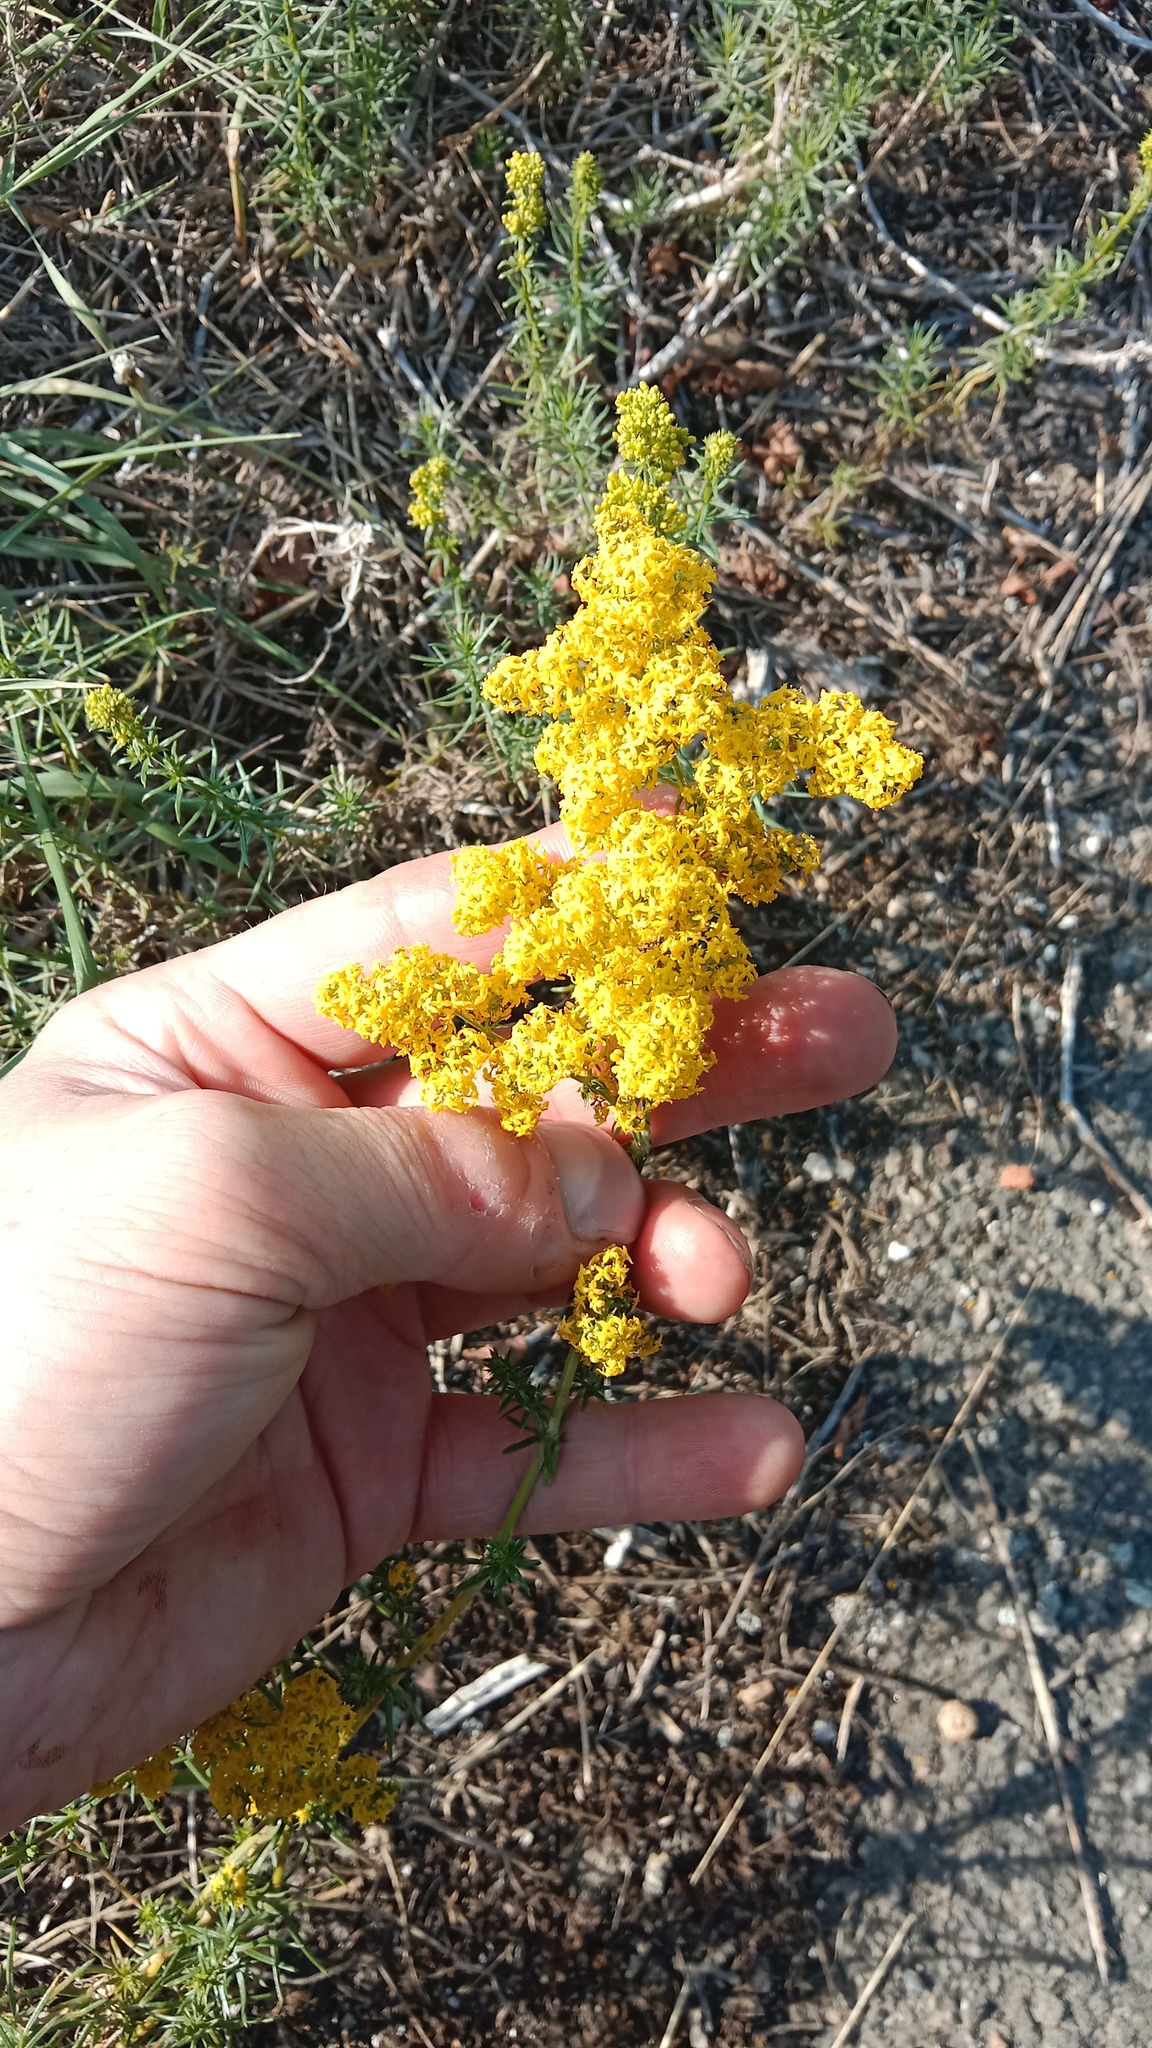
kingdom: Plantae
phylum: Tracheophyta
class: Magnoliopsida
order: Gentianales
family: Rubiaceae
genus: Galium
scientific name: Galium verum
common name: Lady's bedstraw
